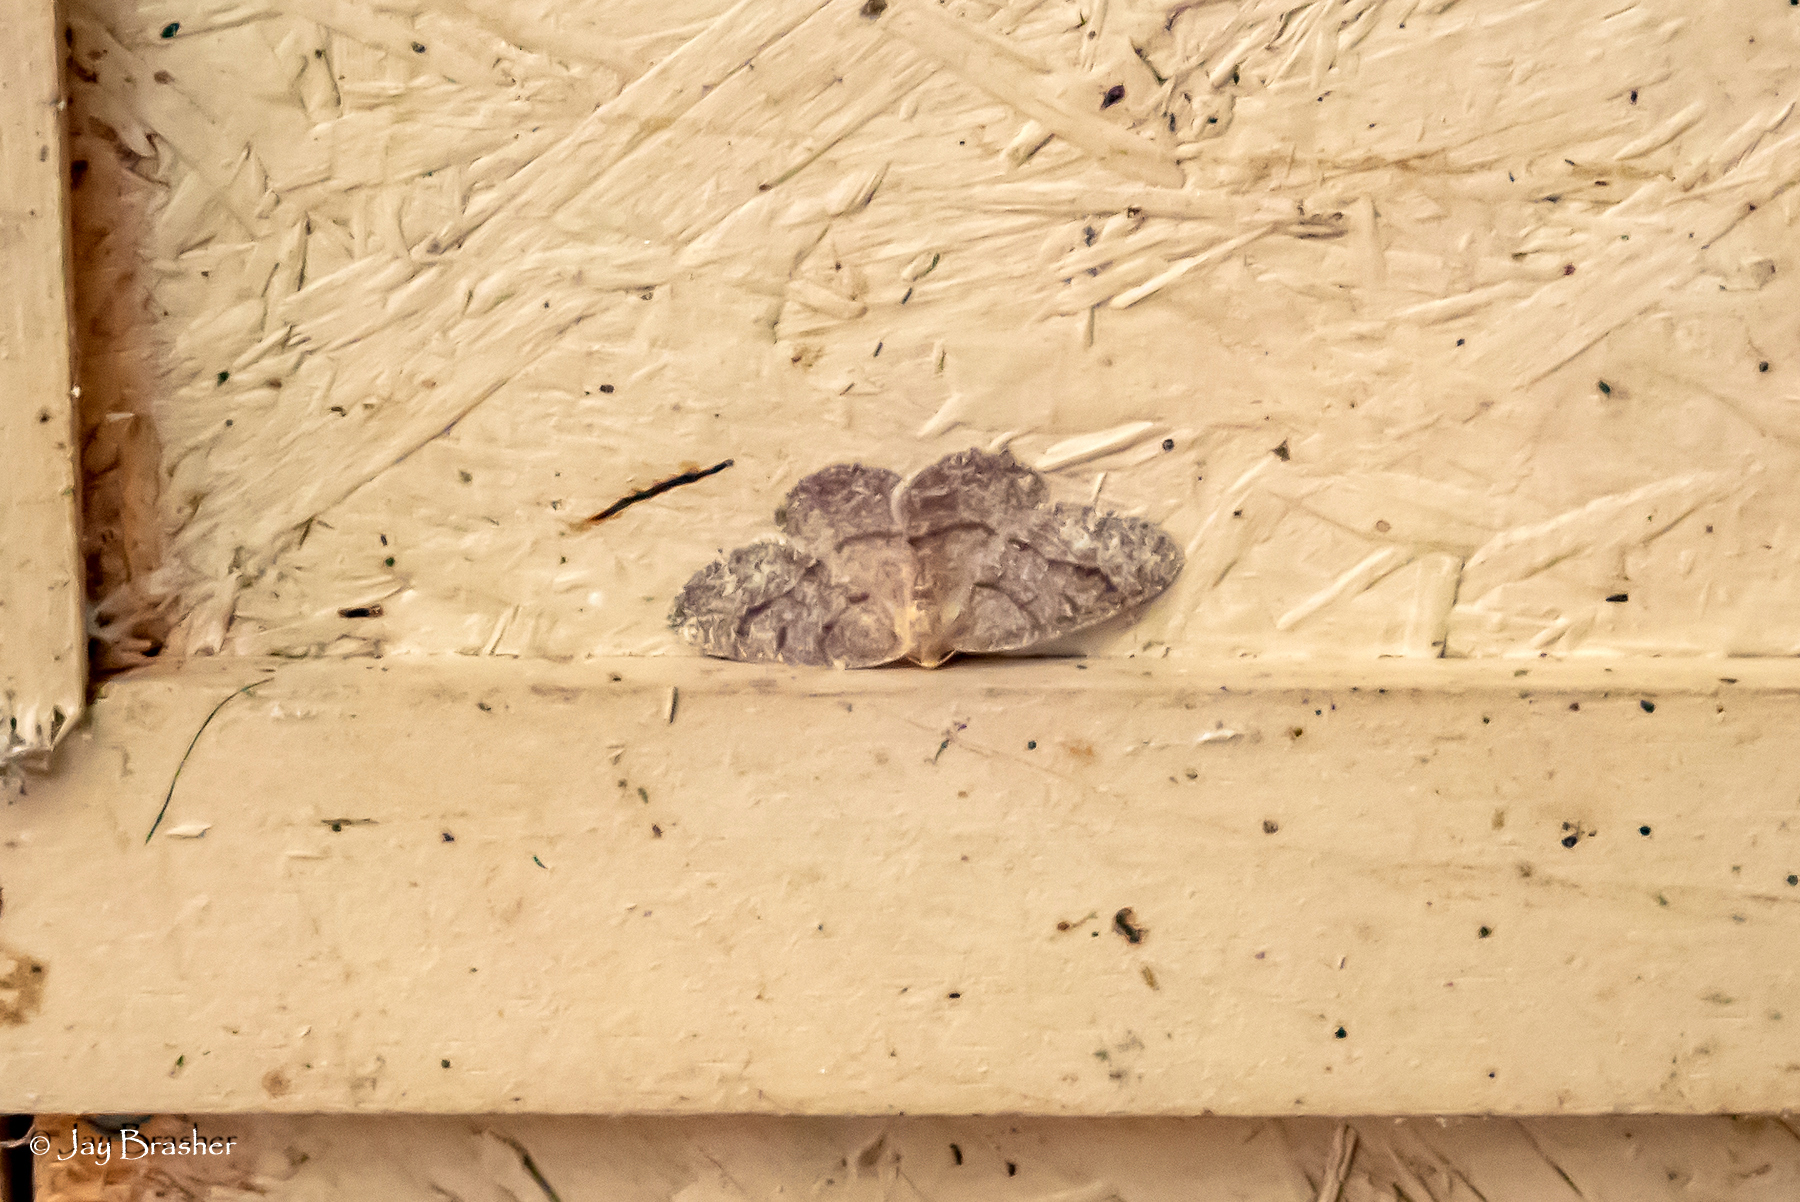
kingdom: Animalia
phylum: Arthropoda
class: Insecta
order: Lepidoptera
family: Geometridae
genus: Lambdina
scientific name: Lambdina fervidaria
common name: Curve-lined looper moth
